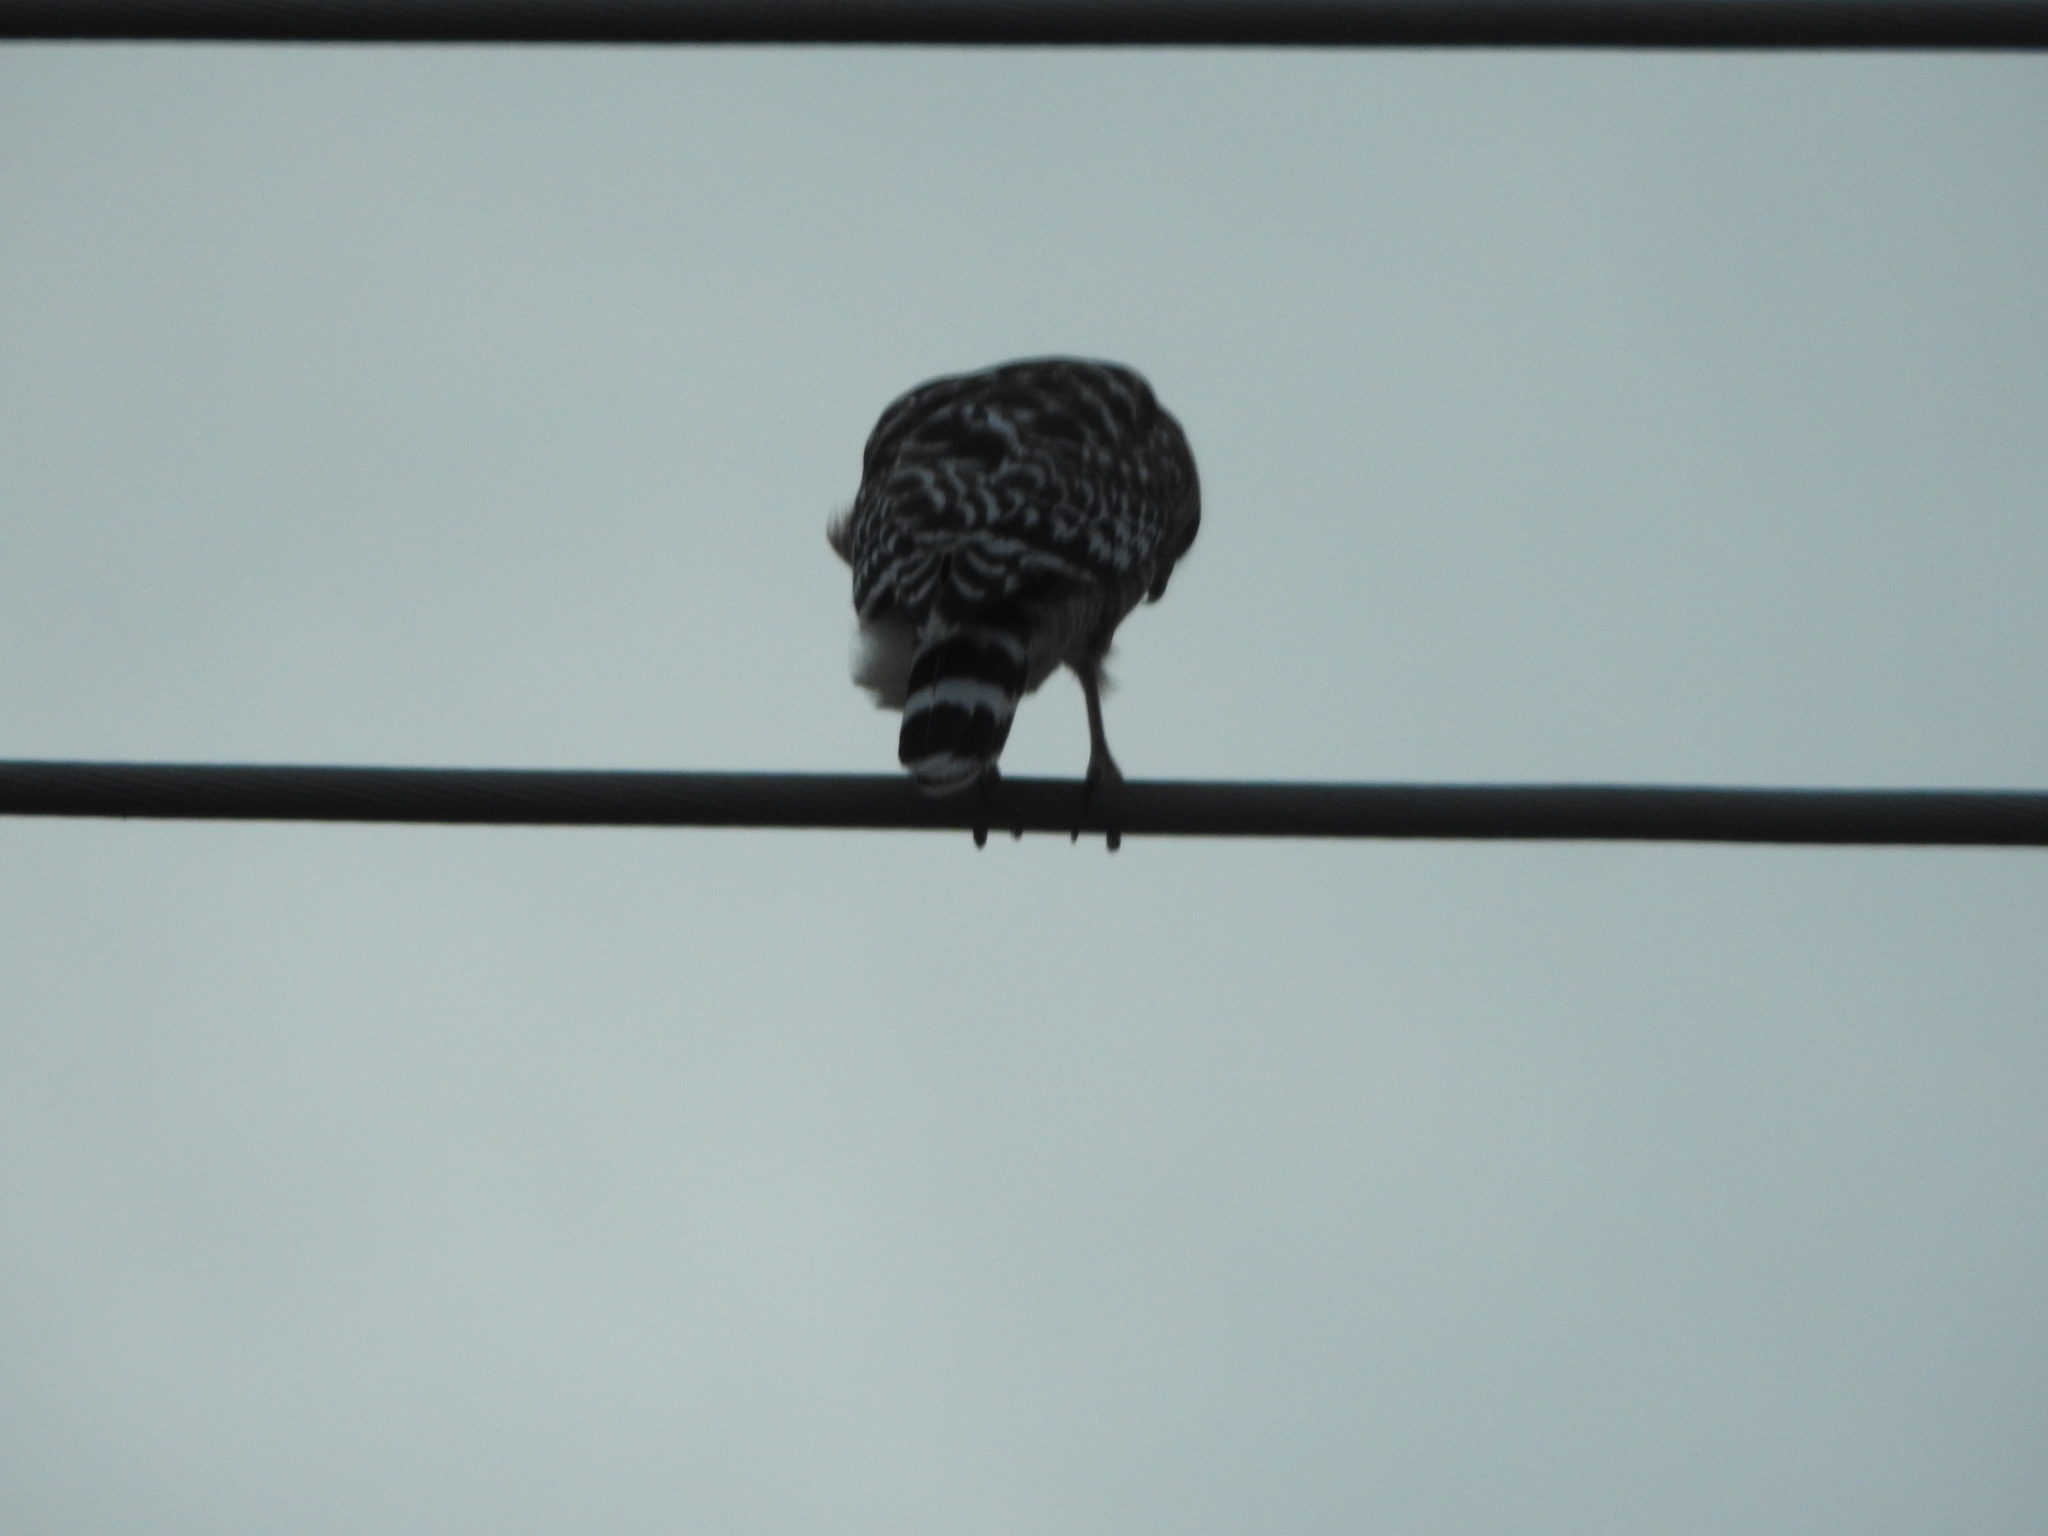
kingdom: Animalia
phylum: Chordata
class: Aves
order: Accipitriformes
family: Accipitridae
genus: Buteo
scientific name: Buteo lineatus
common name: Red-shouldered hawk
